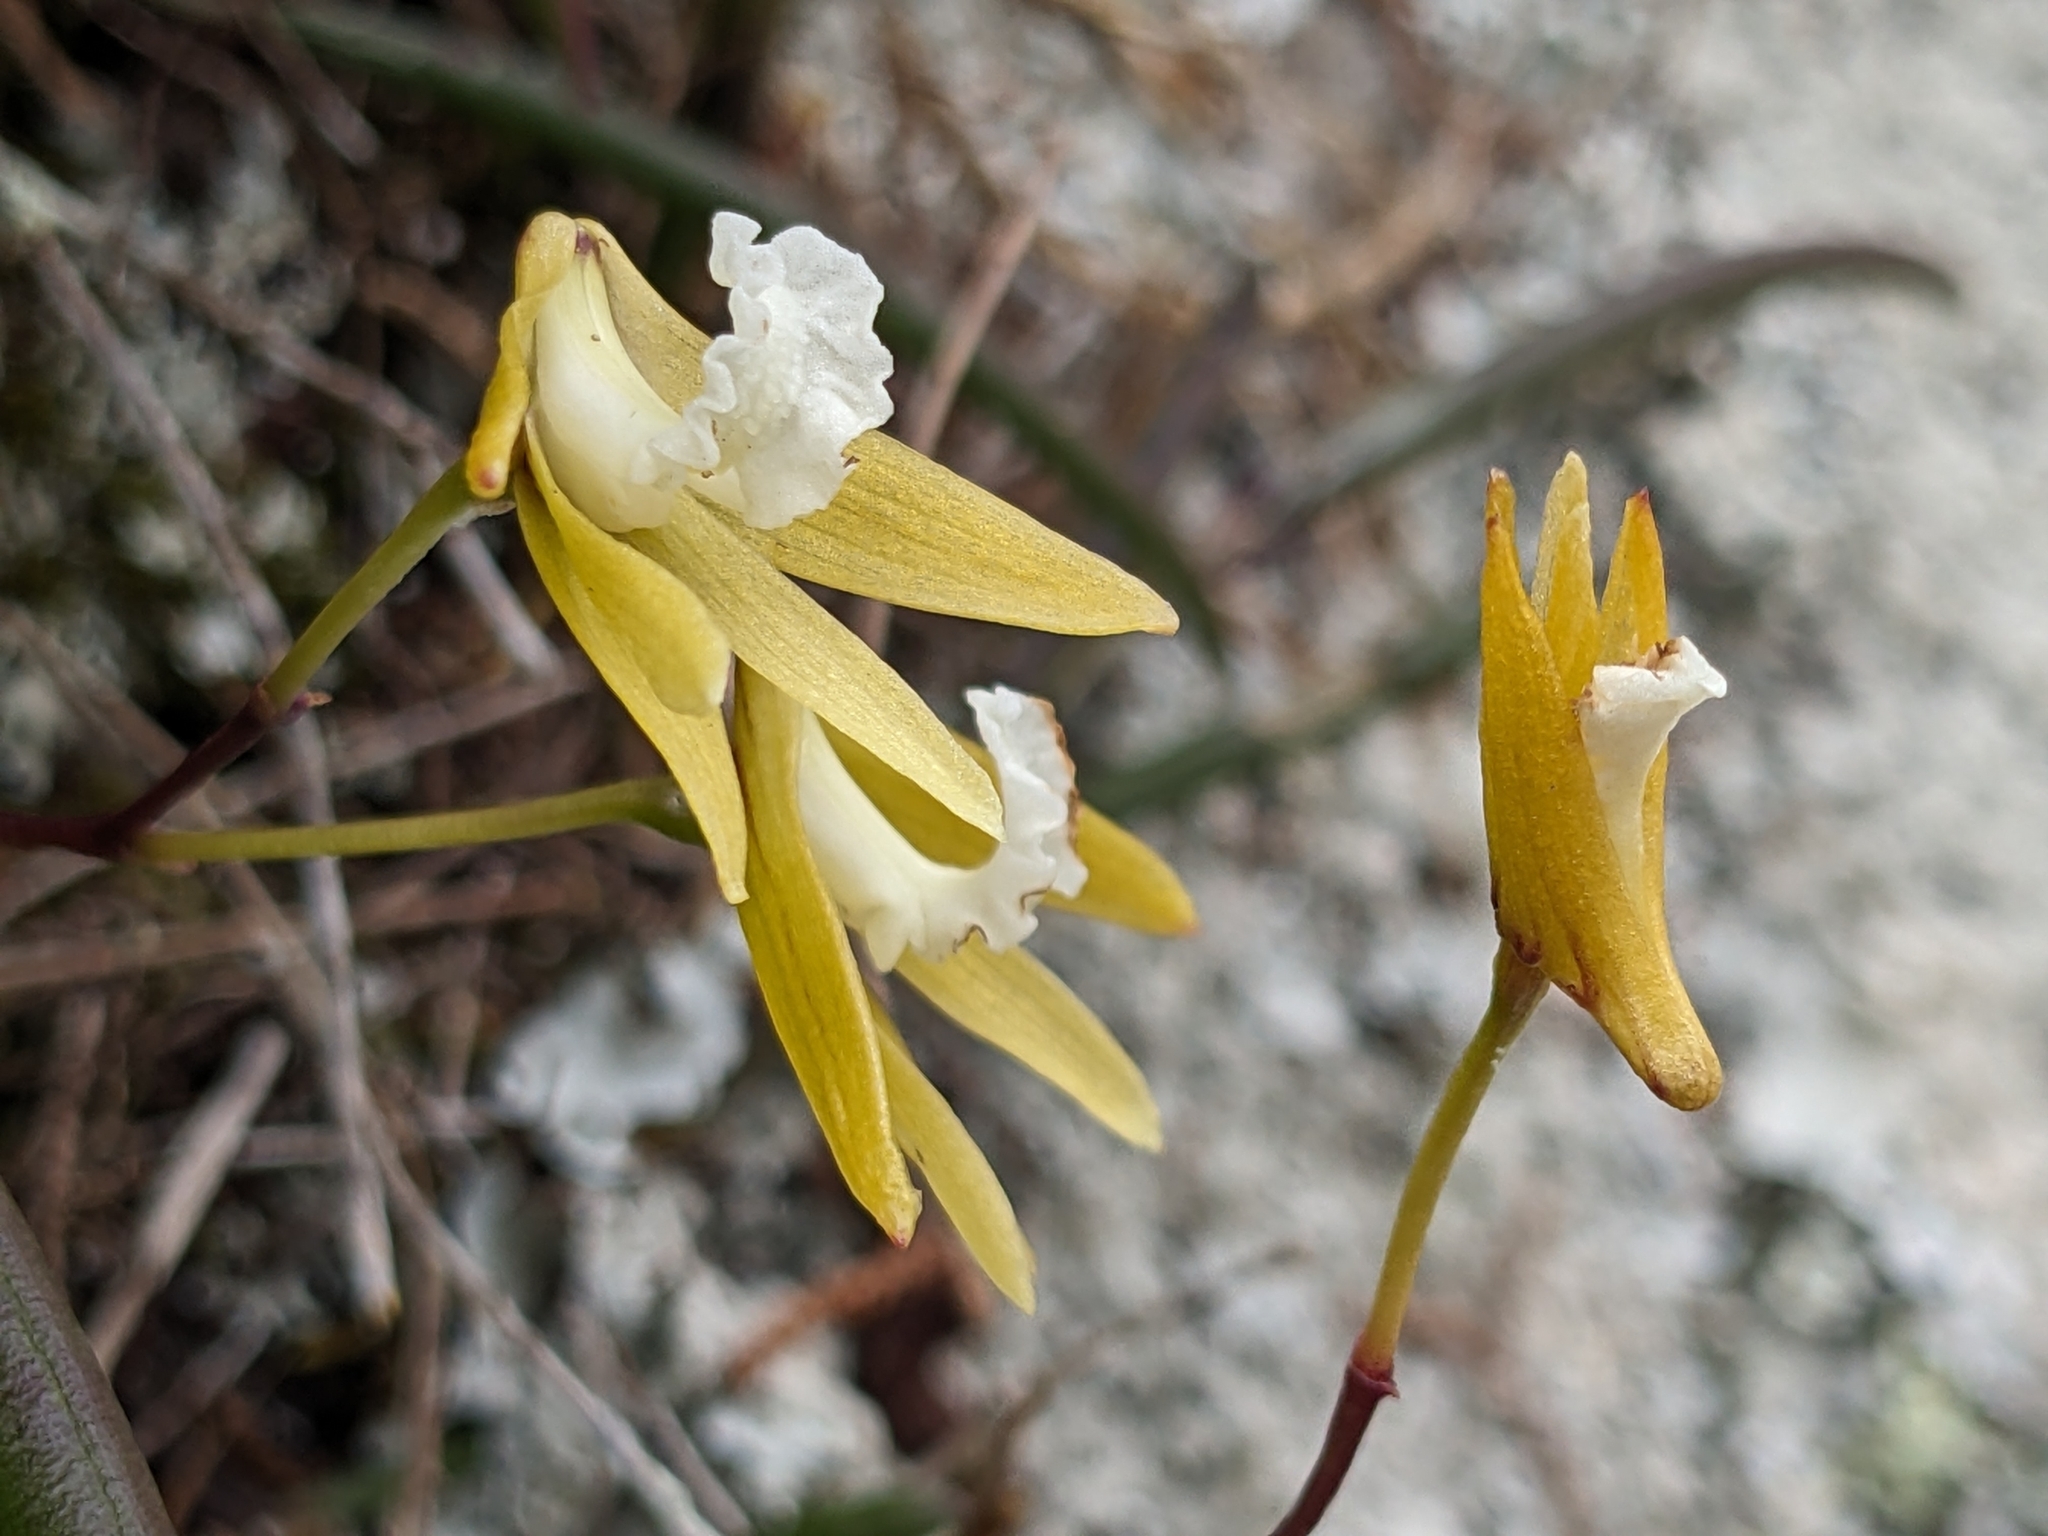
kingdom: Plantae
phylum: Tracheophyta
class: Liliopsida
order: Asparagales
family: Orchidaceae
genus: Dendrobium
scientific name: Dendrobium striolatum
